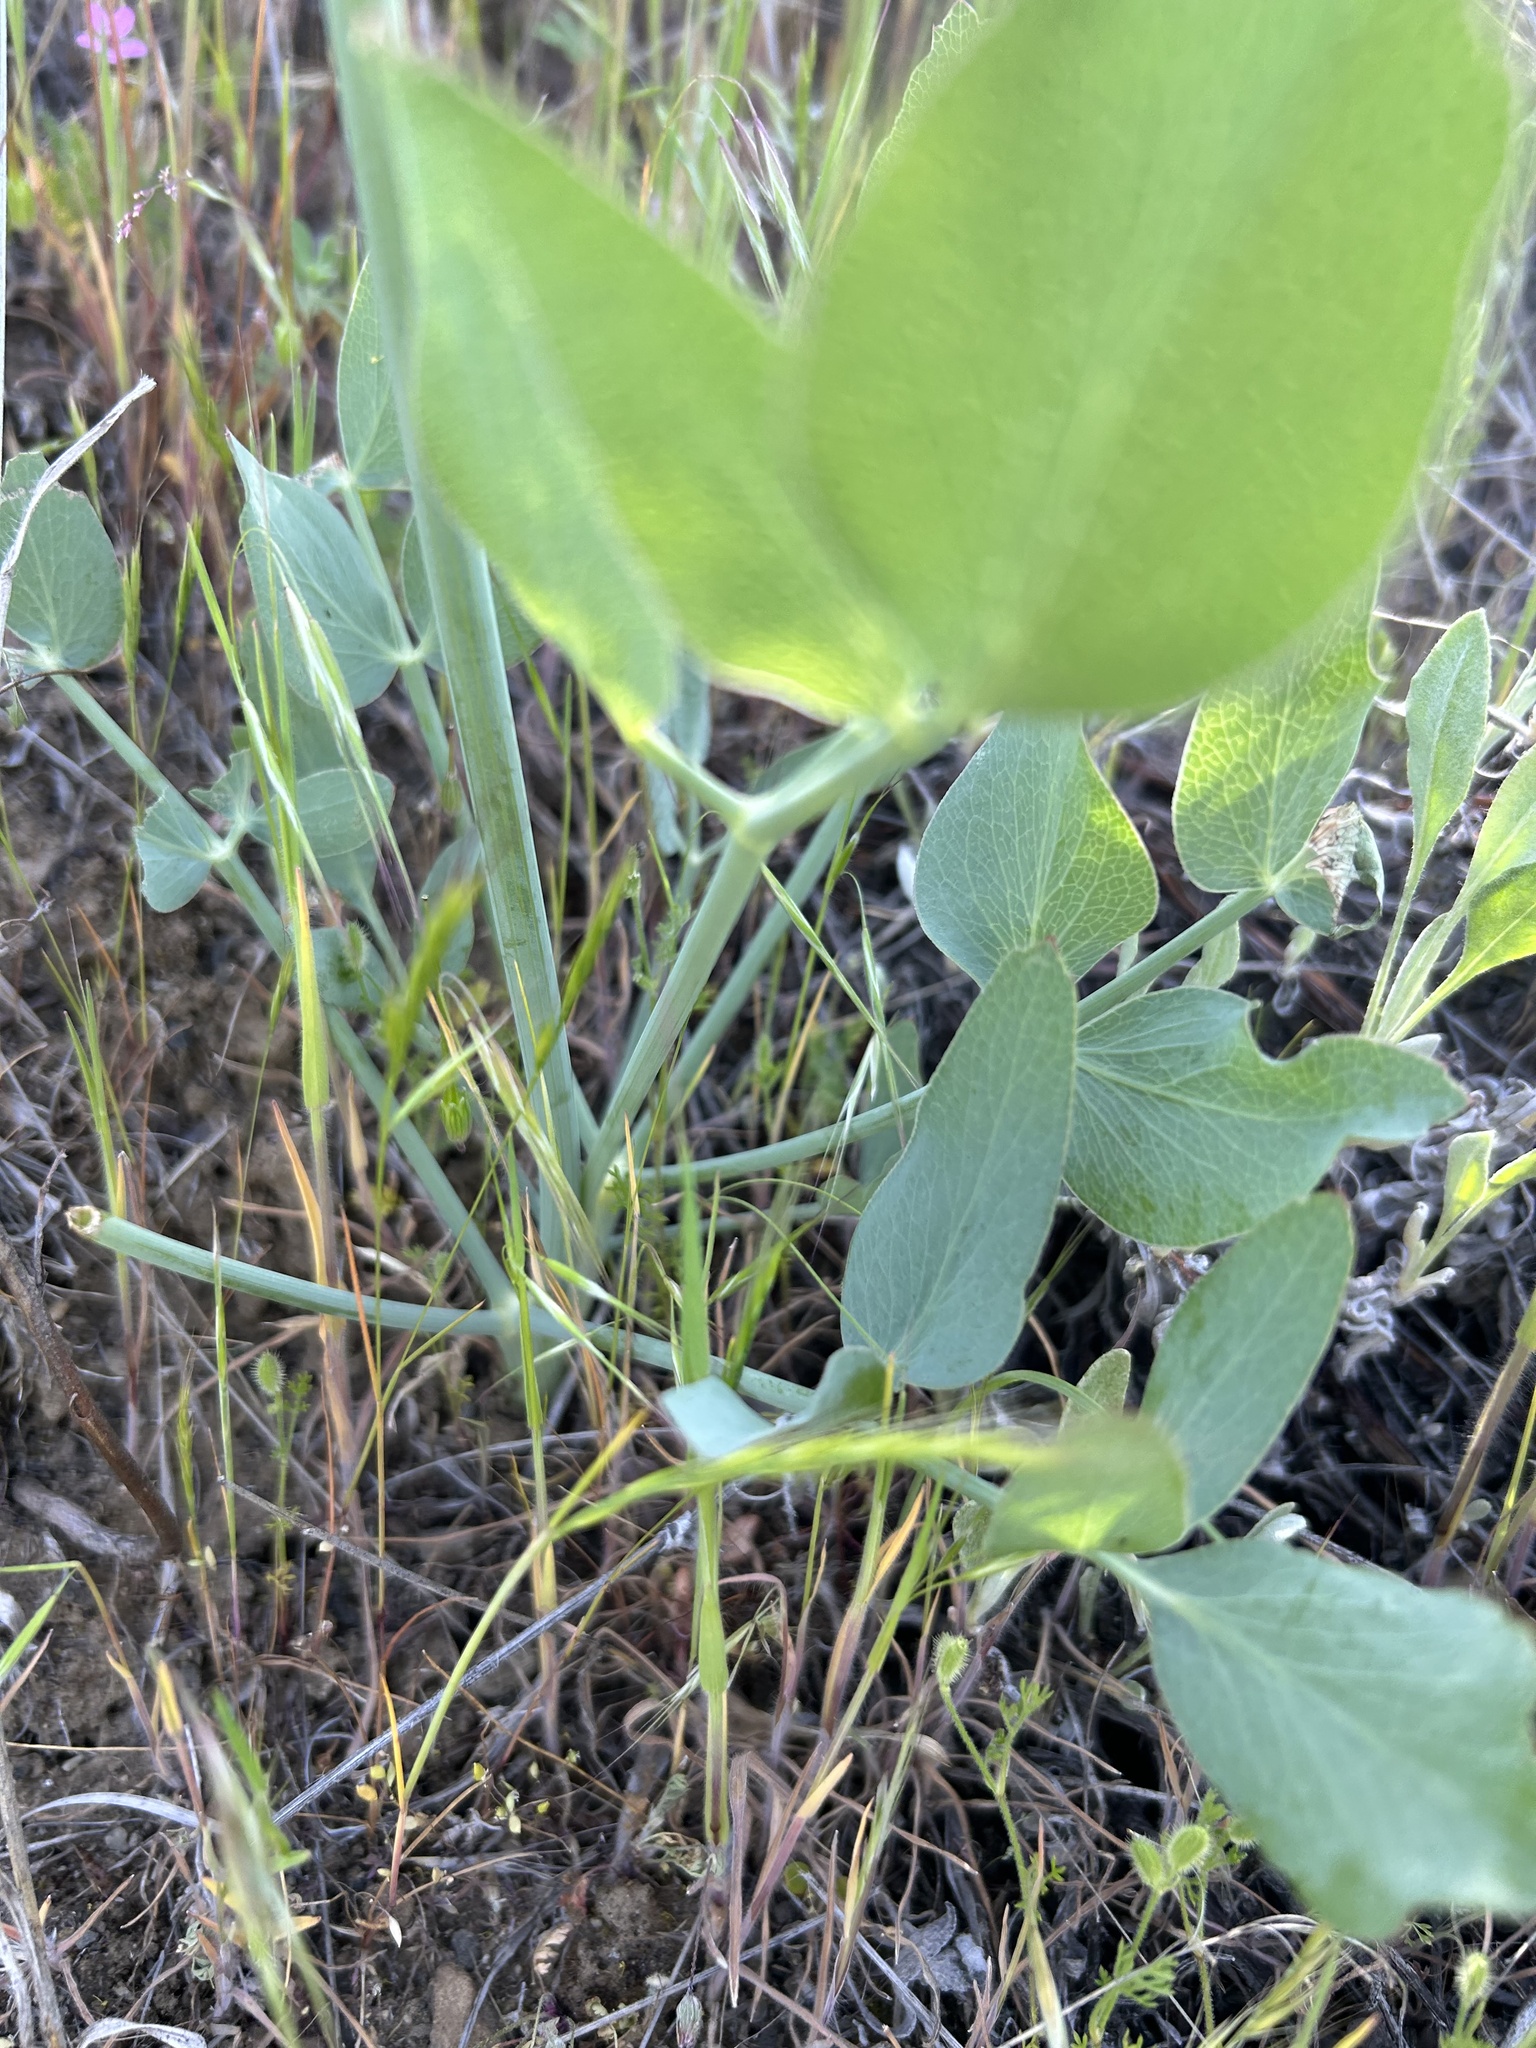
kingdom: Plantae
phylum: Tracheophyta
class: Magnoliopsida
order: Apiales
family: Apiaceae
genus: Lomatium
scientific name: Lomatium nudicaule
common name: Pestle lomatium
